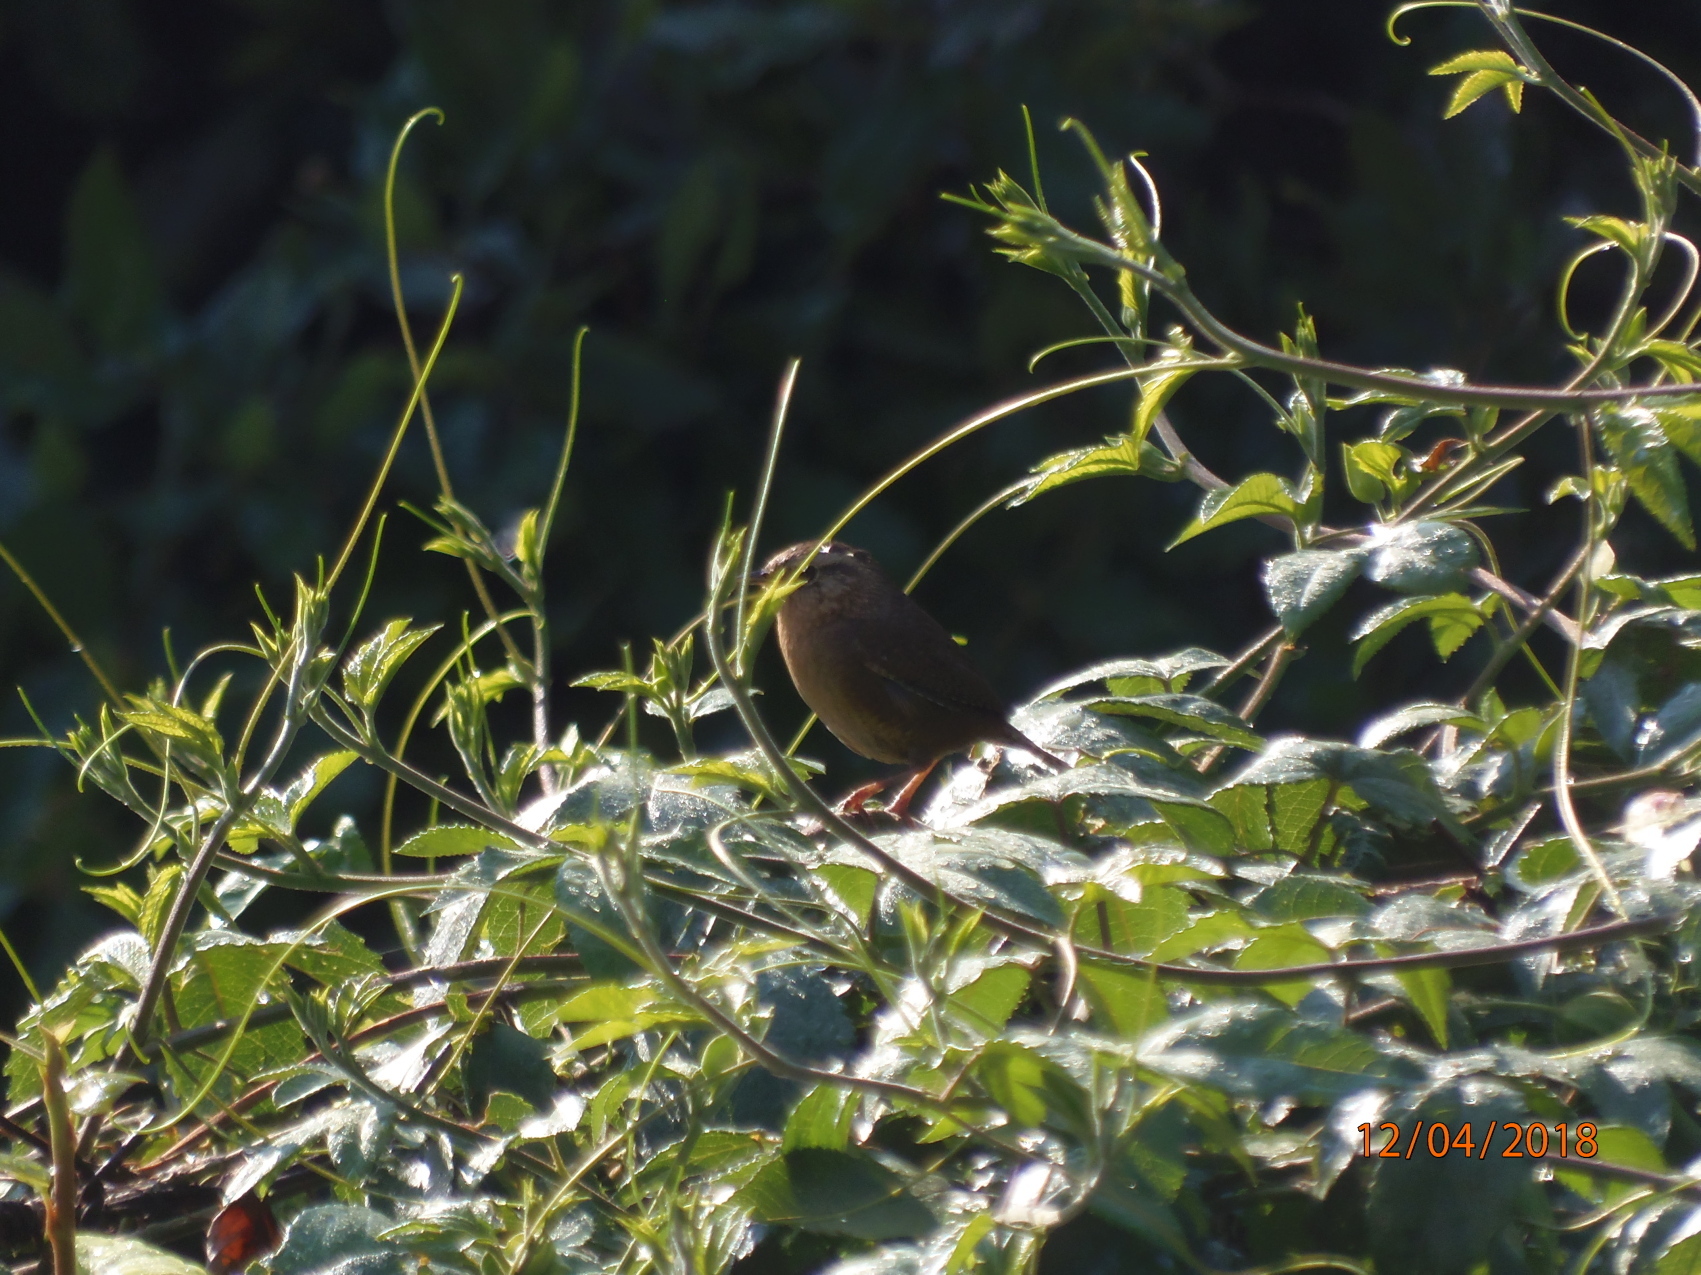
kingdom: Animalia
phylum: Chordata
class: Aves
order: Passeriformes
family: Troglodytidae
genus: Troglodytes
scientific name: Troglodytes aedon
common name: House wren
